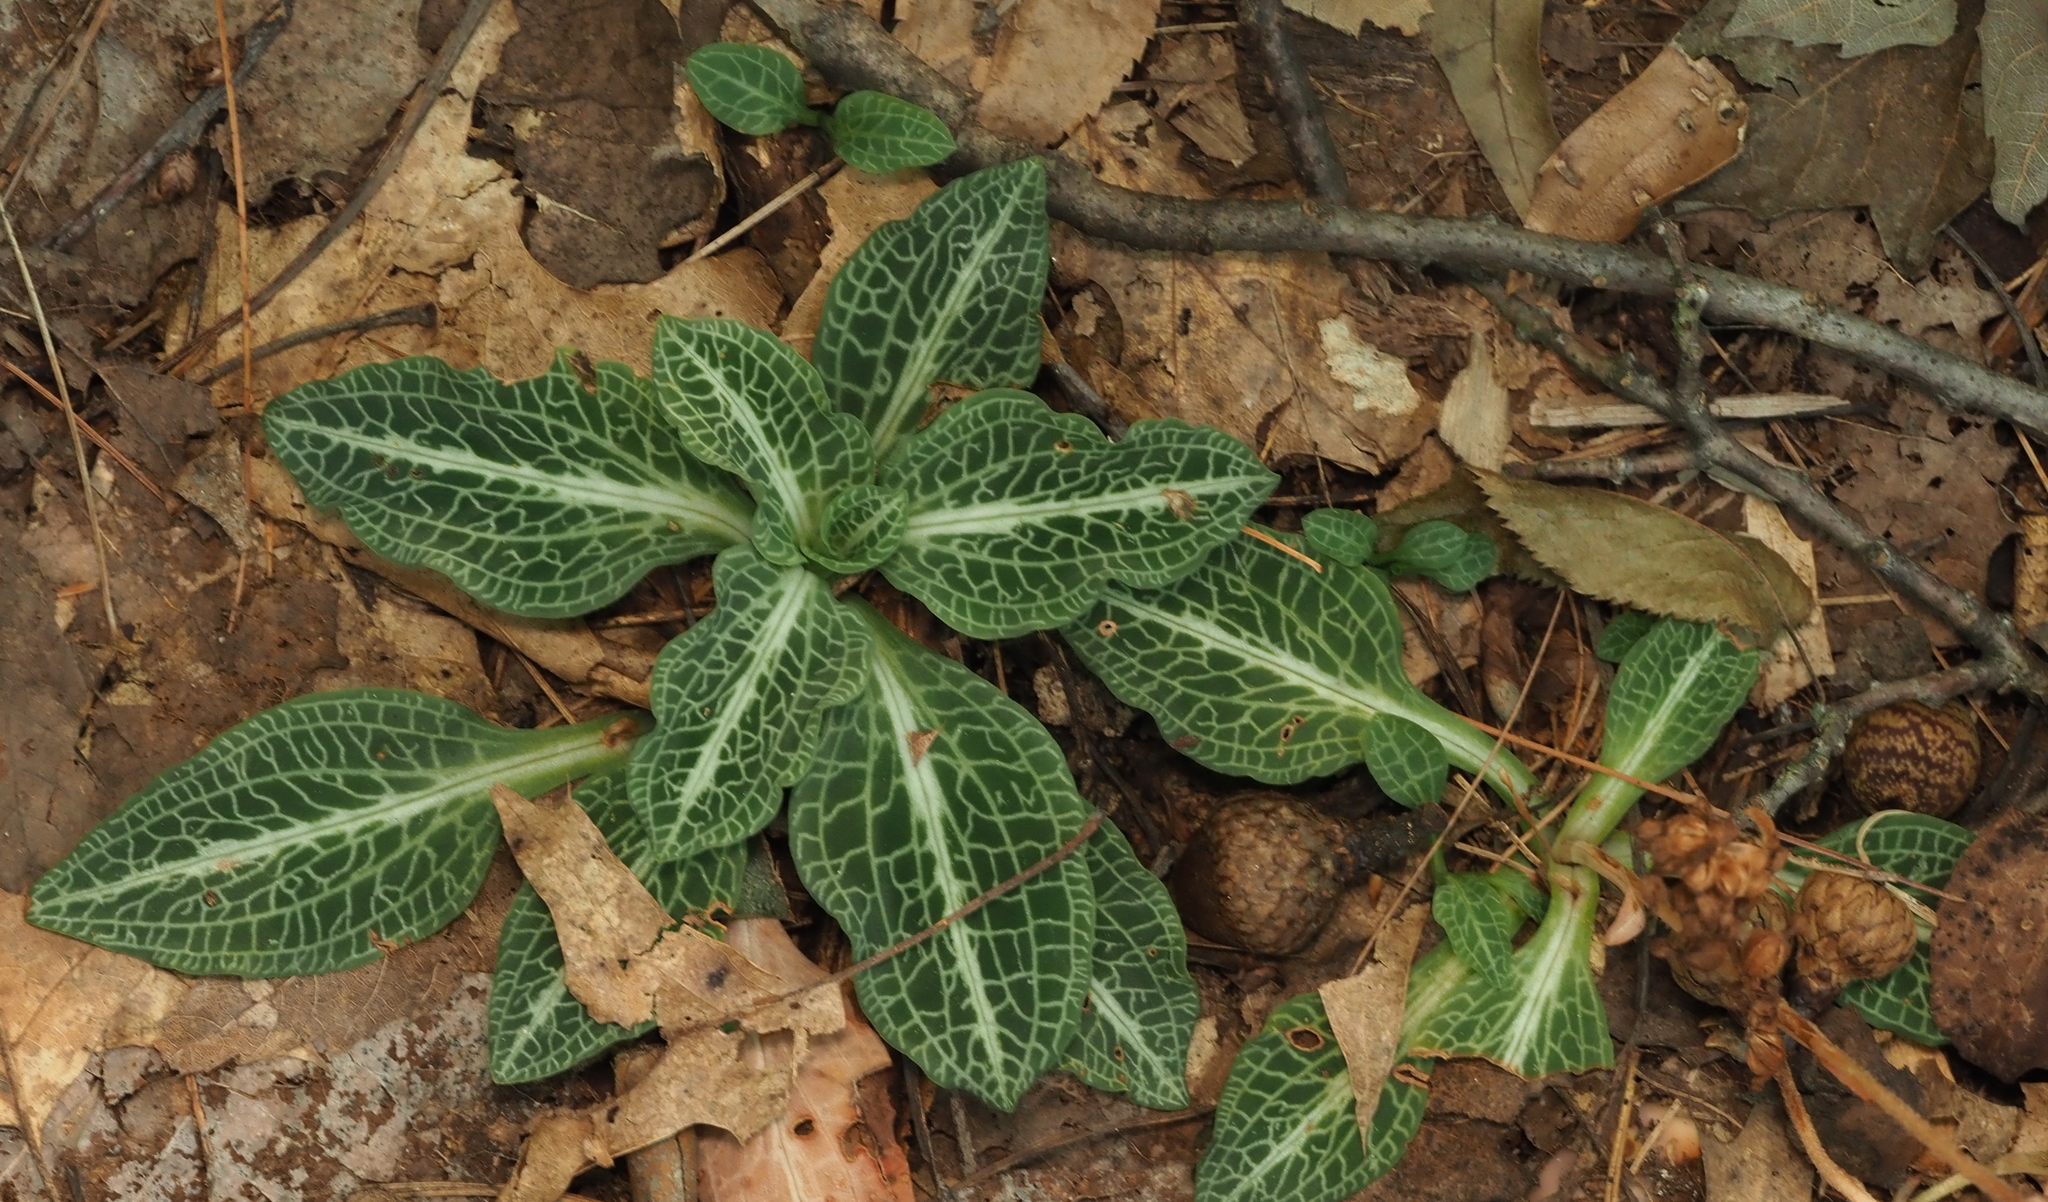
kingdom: Plantae
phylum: Tracheophyta
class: Liliopsida
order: Asparagales
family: Orchidaceae
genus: Goodyera
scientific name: Goodyera pubescens
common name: Downy rattlesnake-plantain
